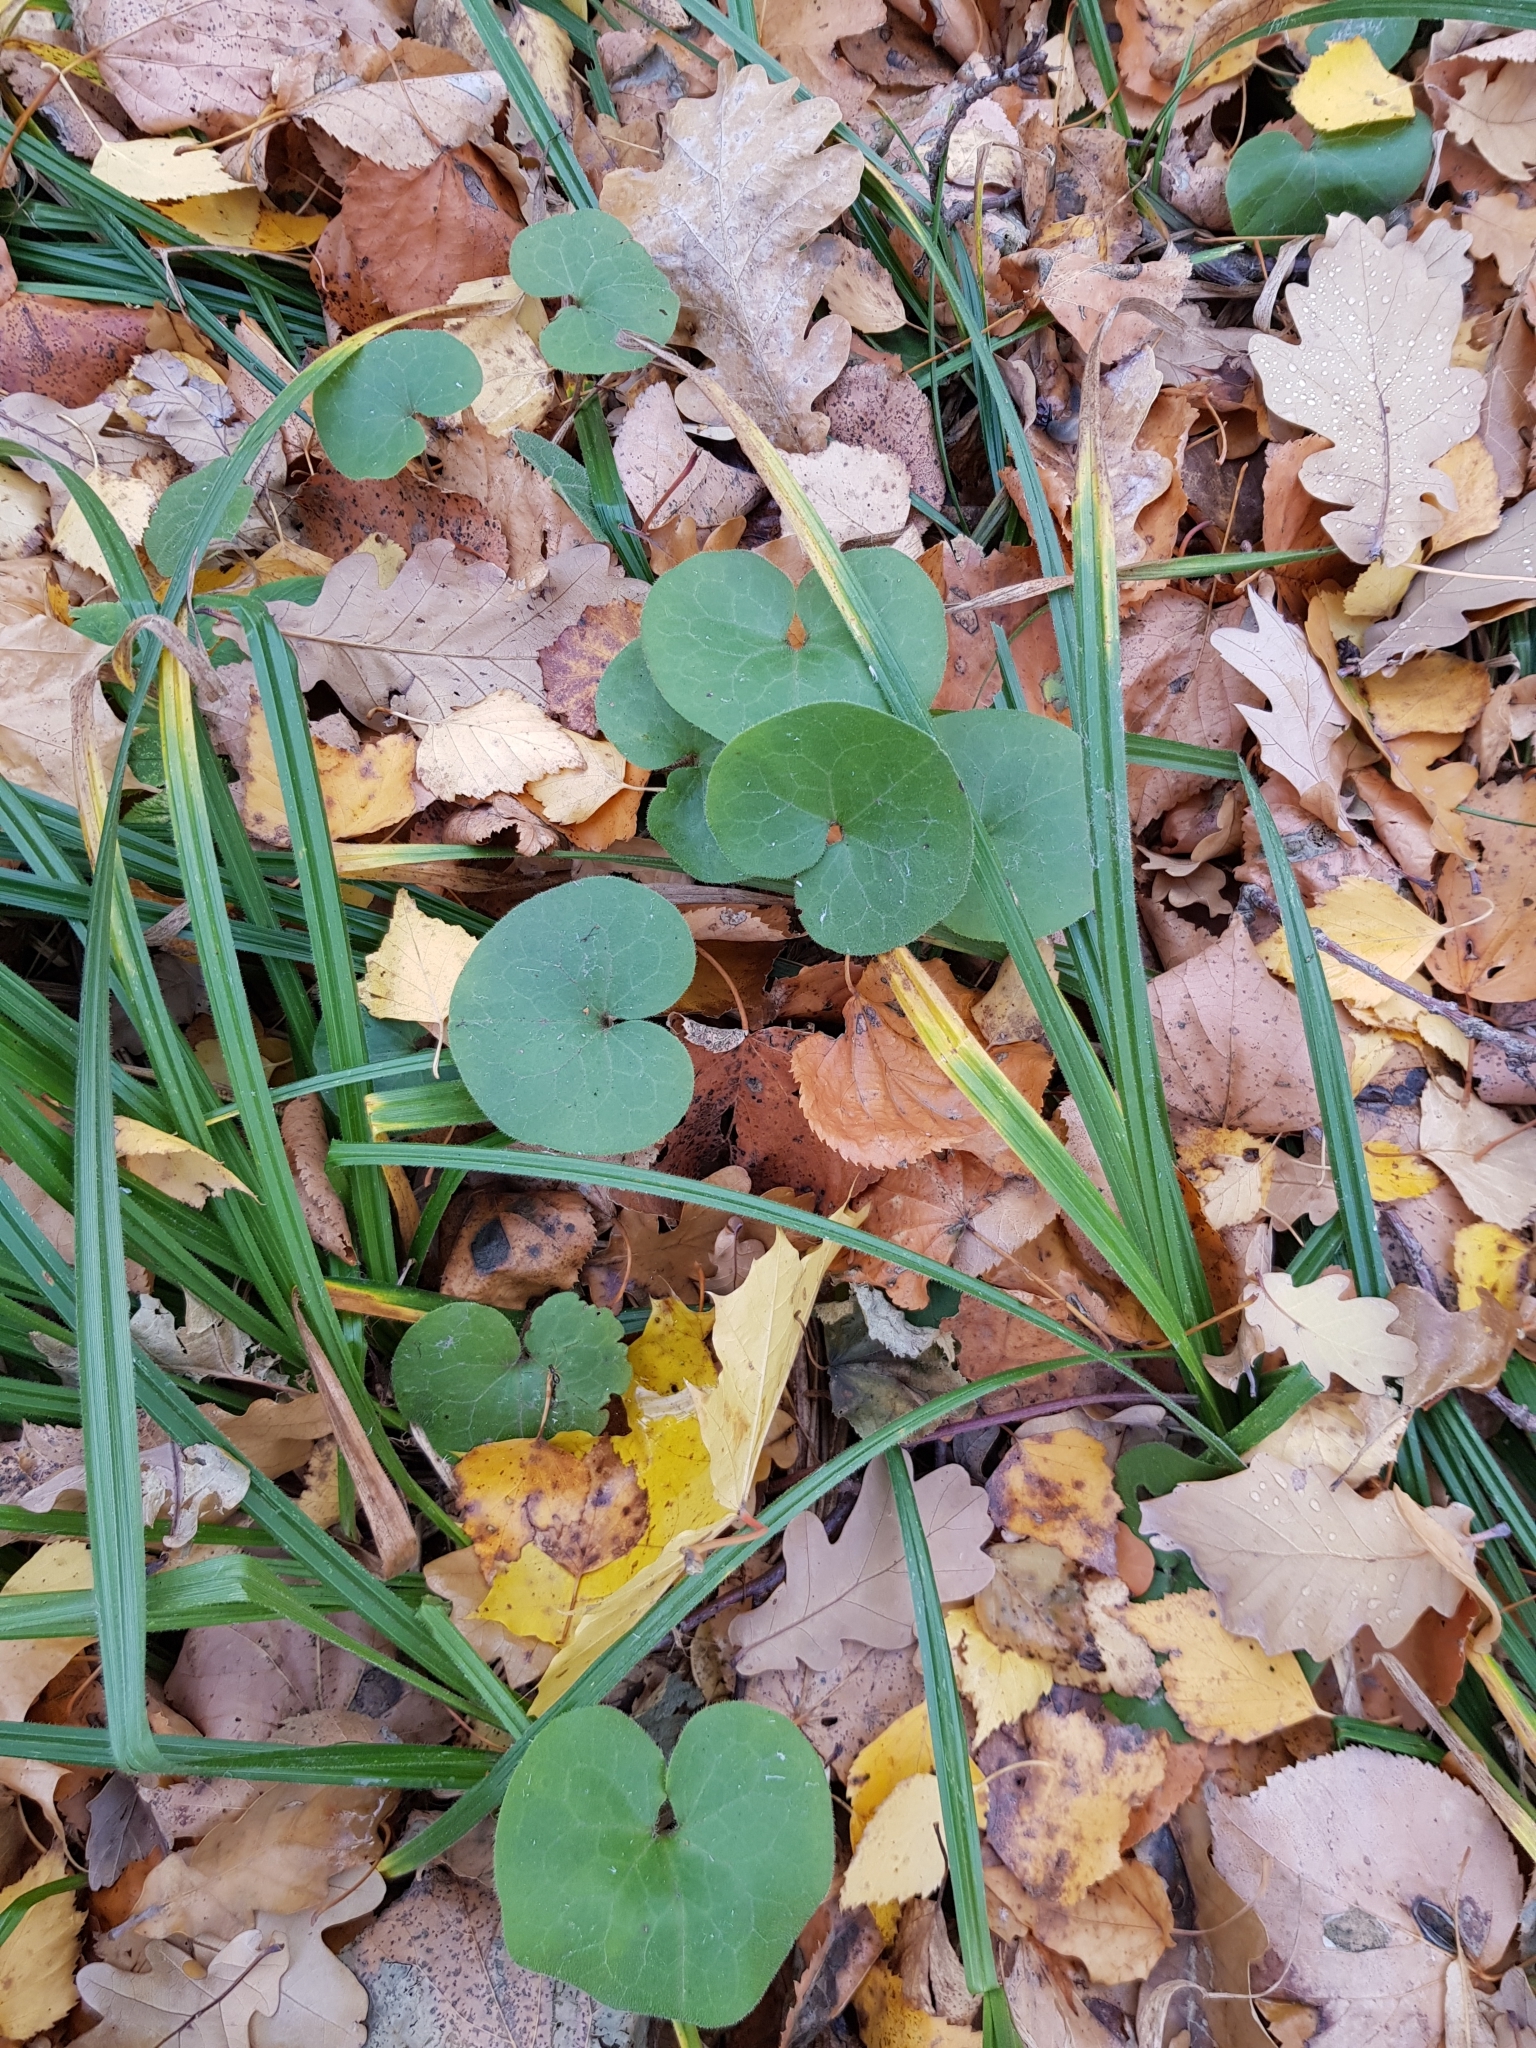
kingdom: Plantae
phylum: Tracheophyta
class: Magnoliopsida
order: Piperales
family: Aristolochiaceae
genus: Asarum
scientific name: Asarum europaeum
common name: Asarabacca
